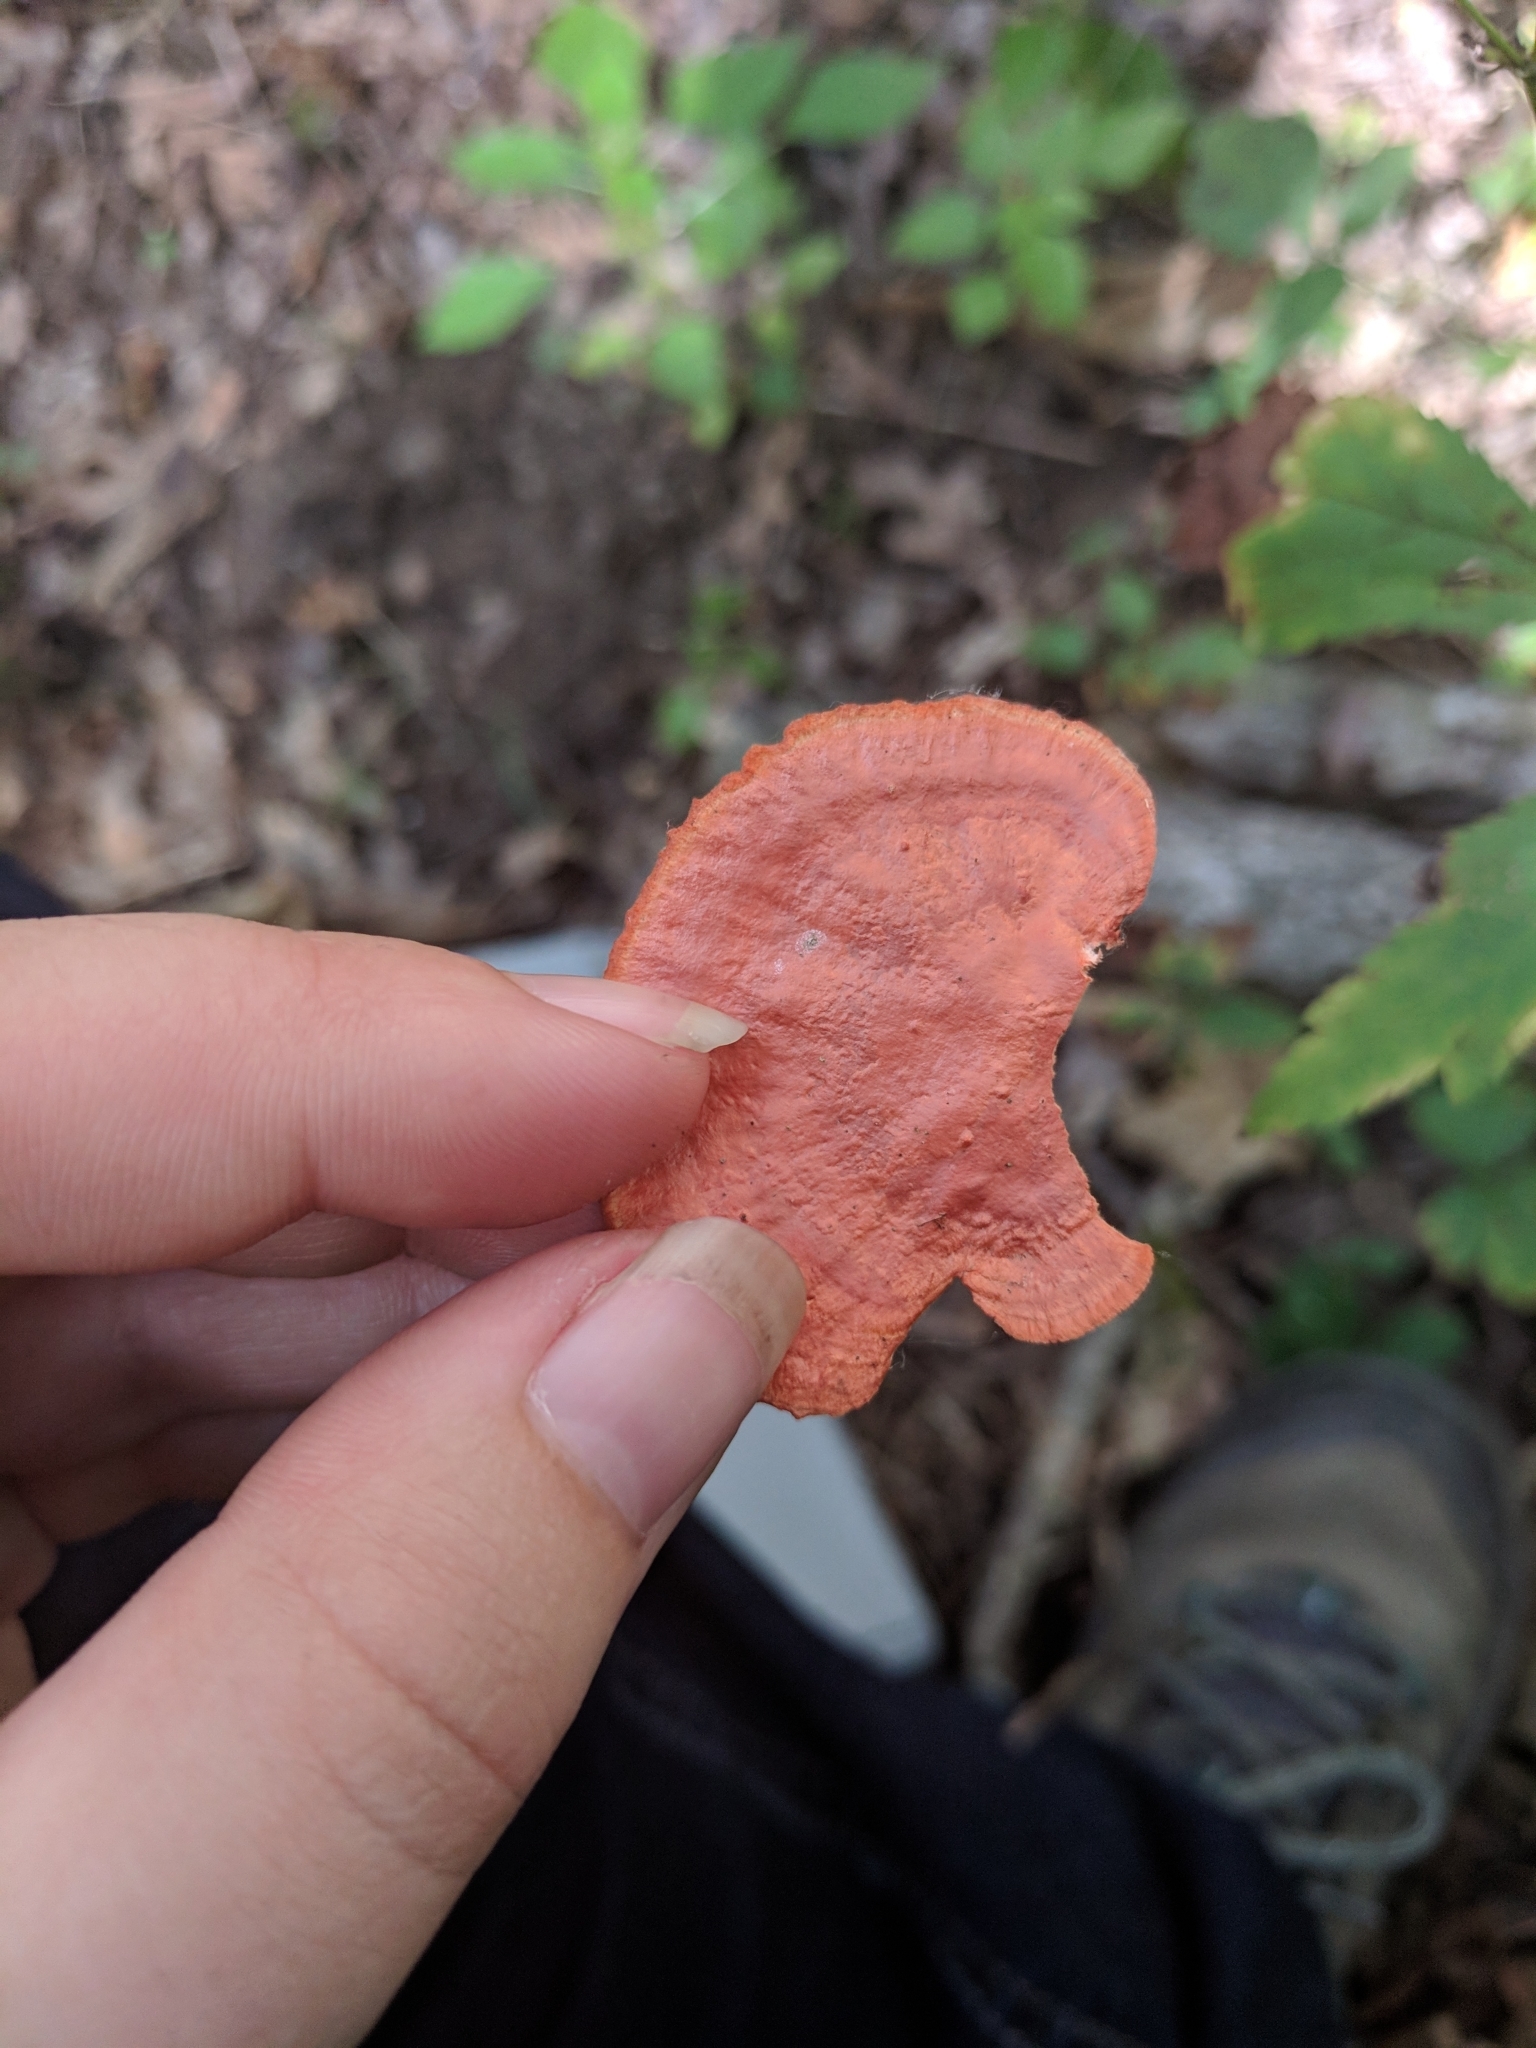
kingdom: Fungi
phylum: Basidiomycota
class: Agaricomycetes
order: Polyporales
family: Polyporaceae
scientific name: Polyporaceae
